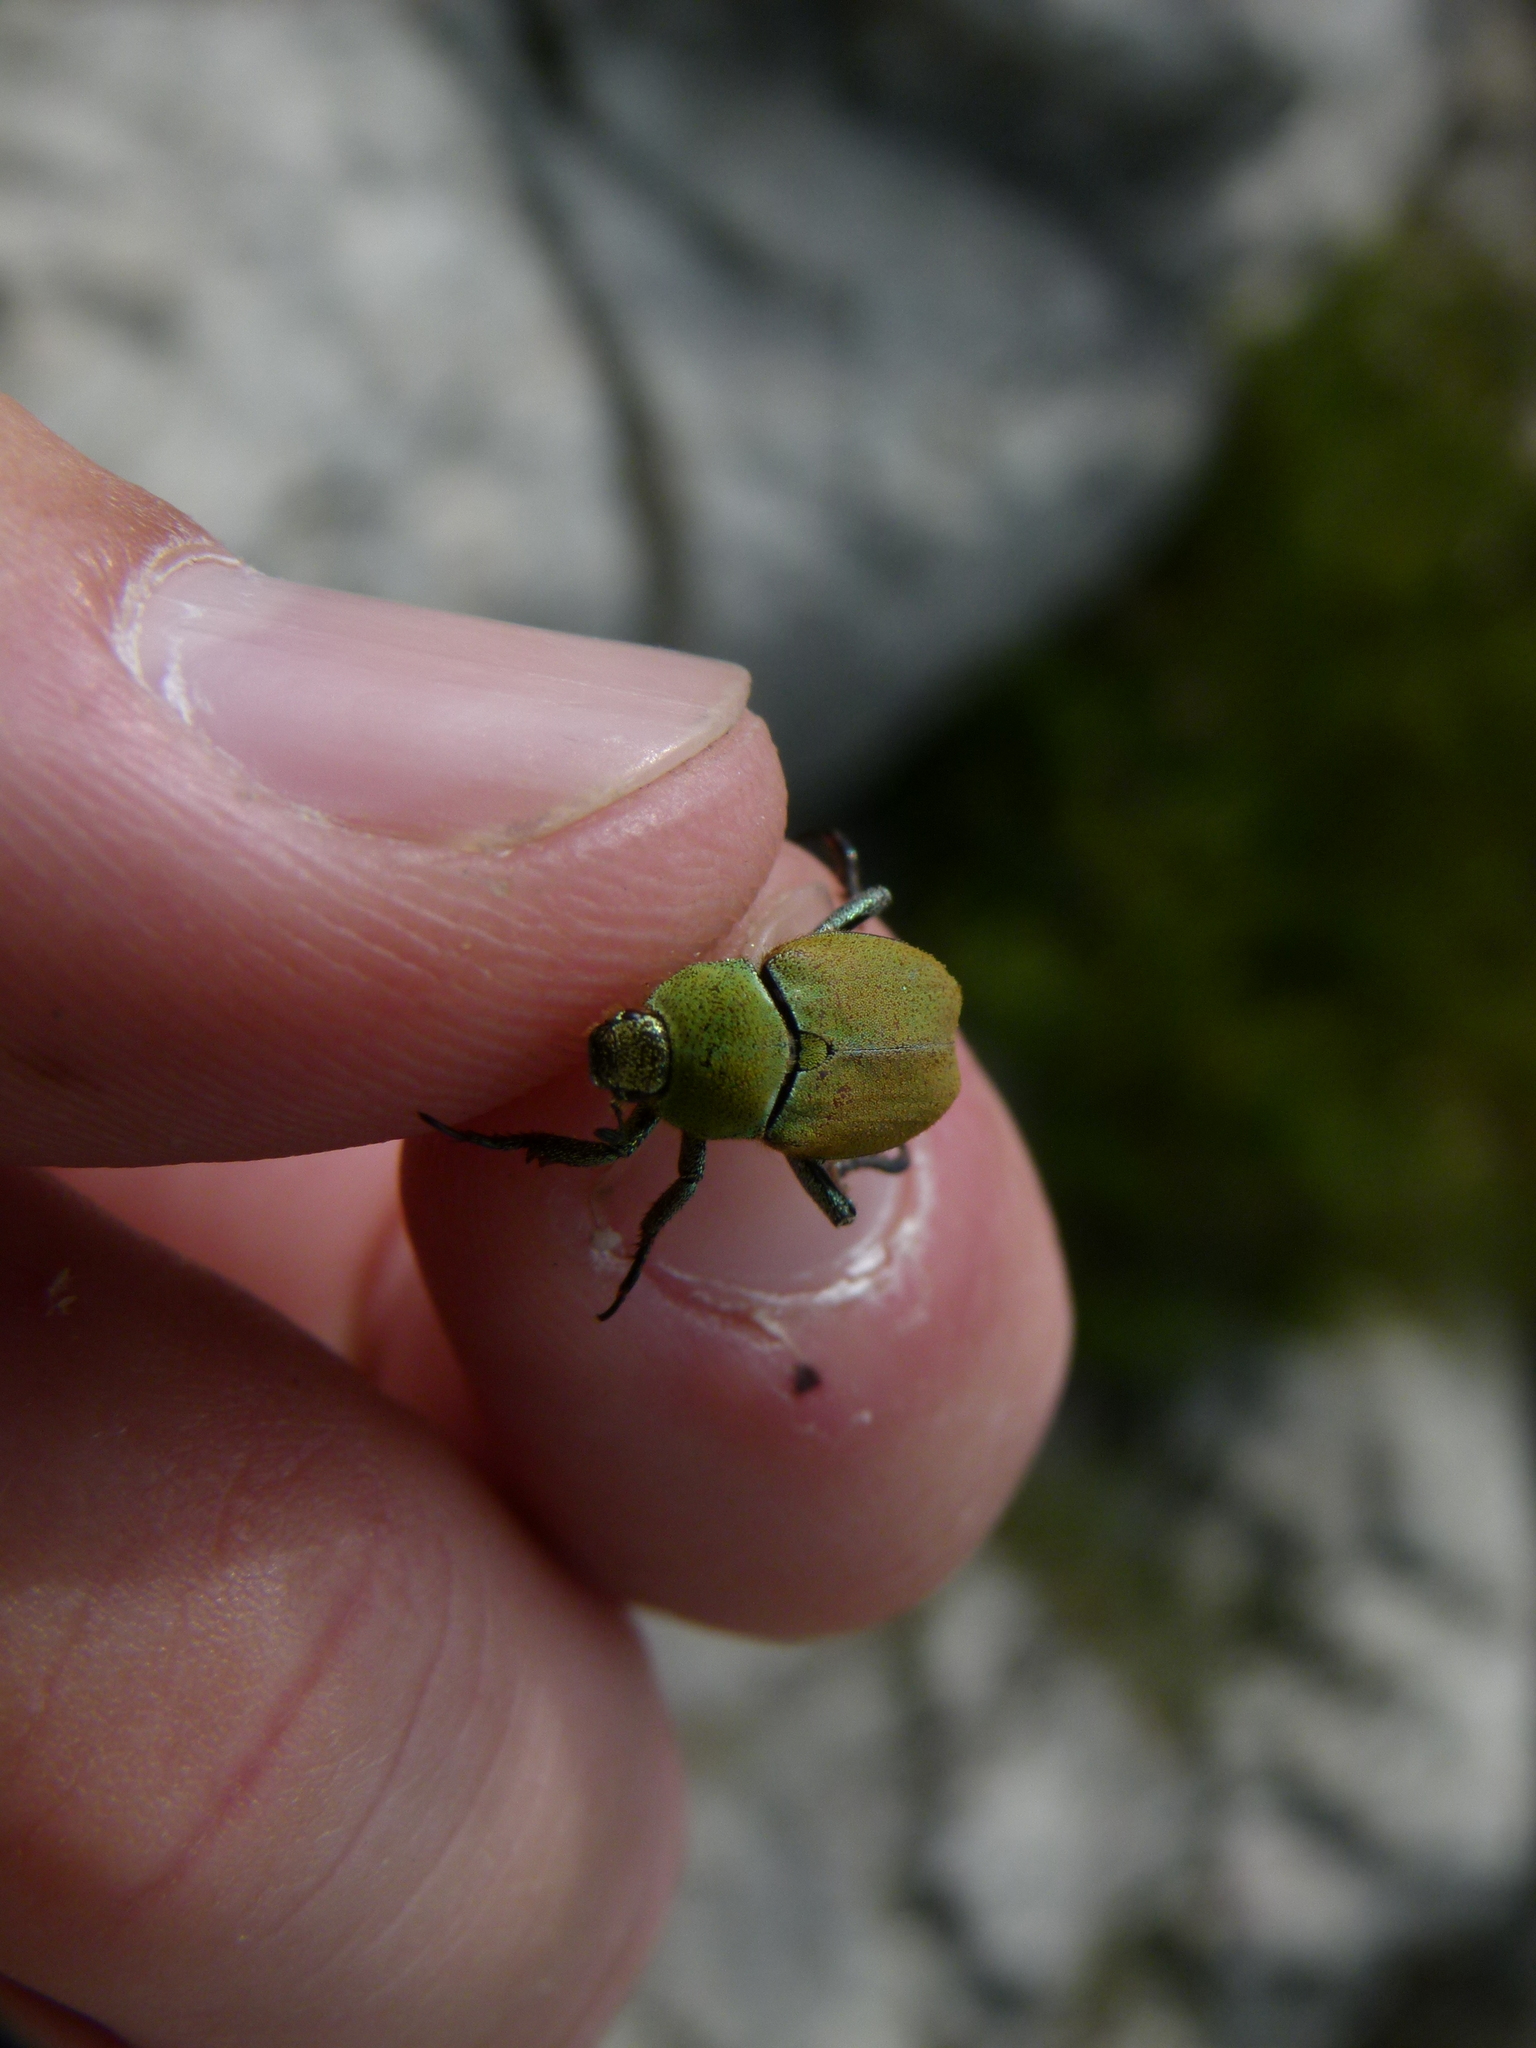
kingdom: Animalia
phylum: Arthropoda
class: Insecta
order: Coleoptera
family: Scarabaeidae
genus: Hoplia
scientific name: Hoplia argentea
